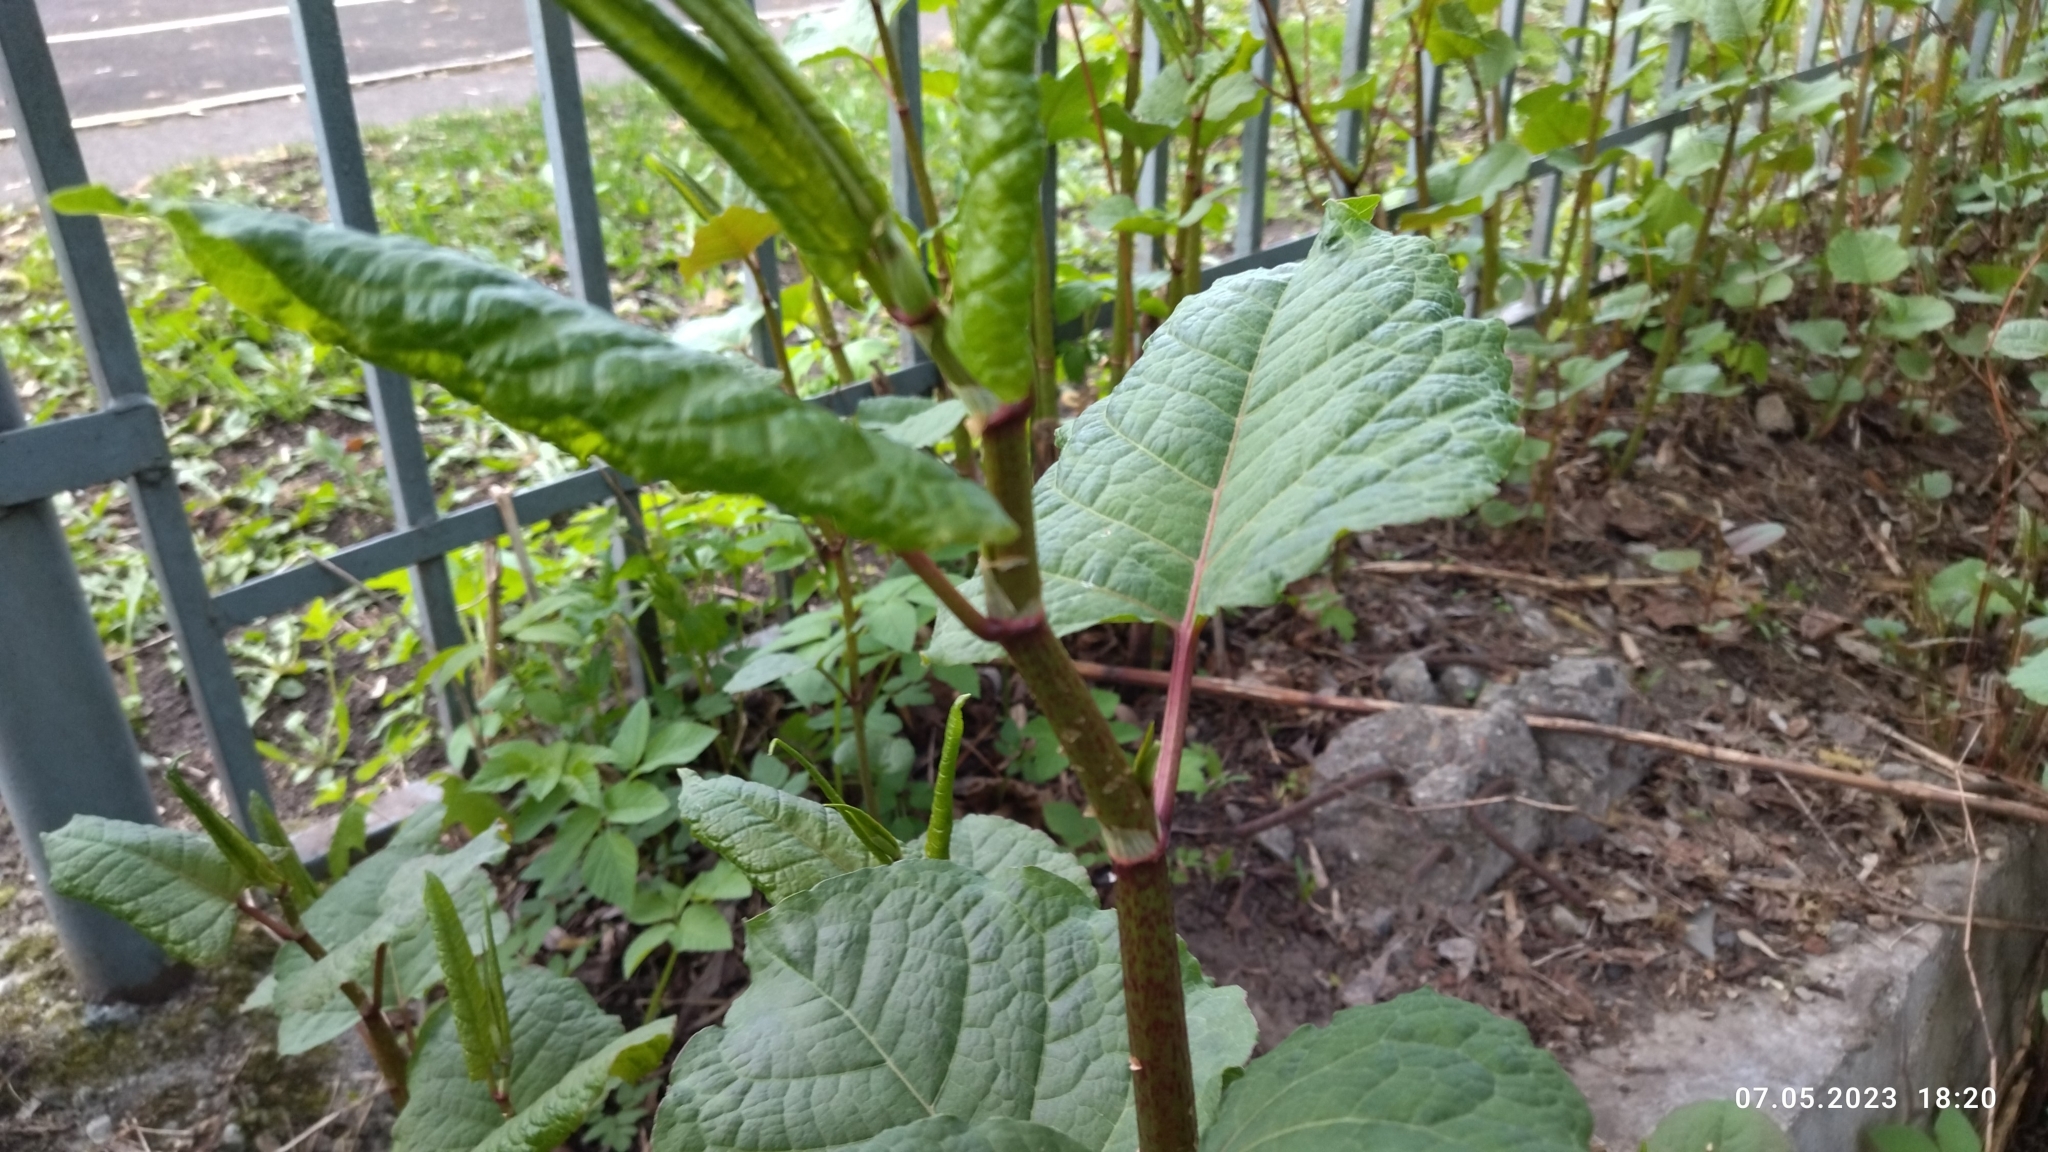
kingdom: Plantae
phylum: Tracheophyta
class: Magnoliopsida
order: Caryophyllales
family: Polygonaceae
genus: Reynoutria
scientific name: Reynoutria bohemica
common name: Bohemian knotweed
